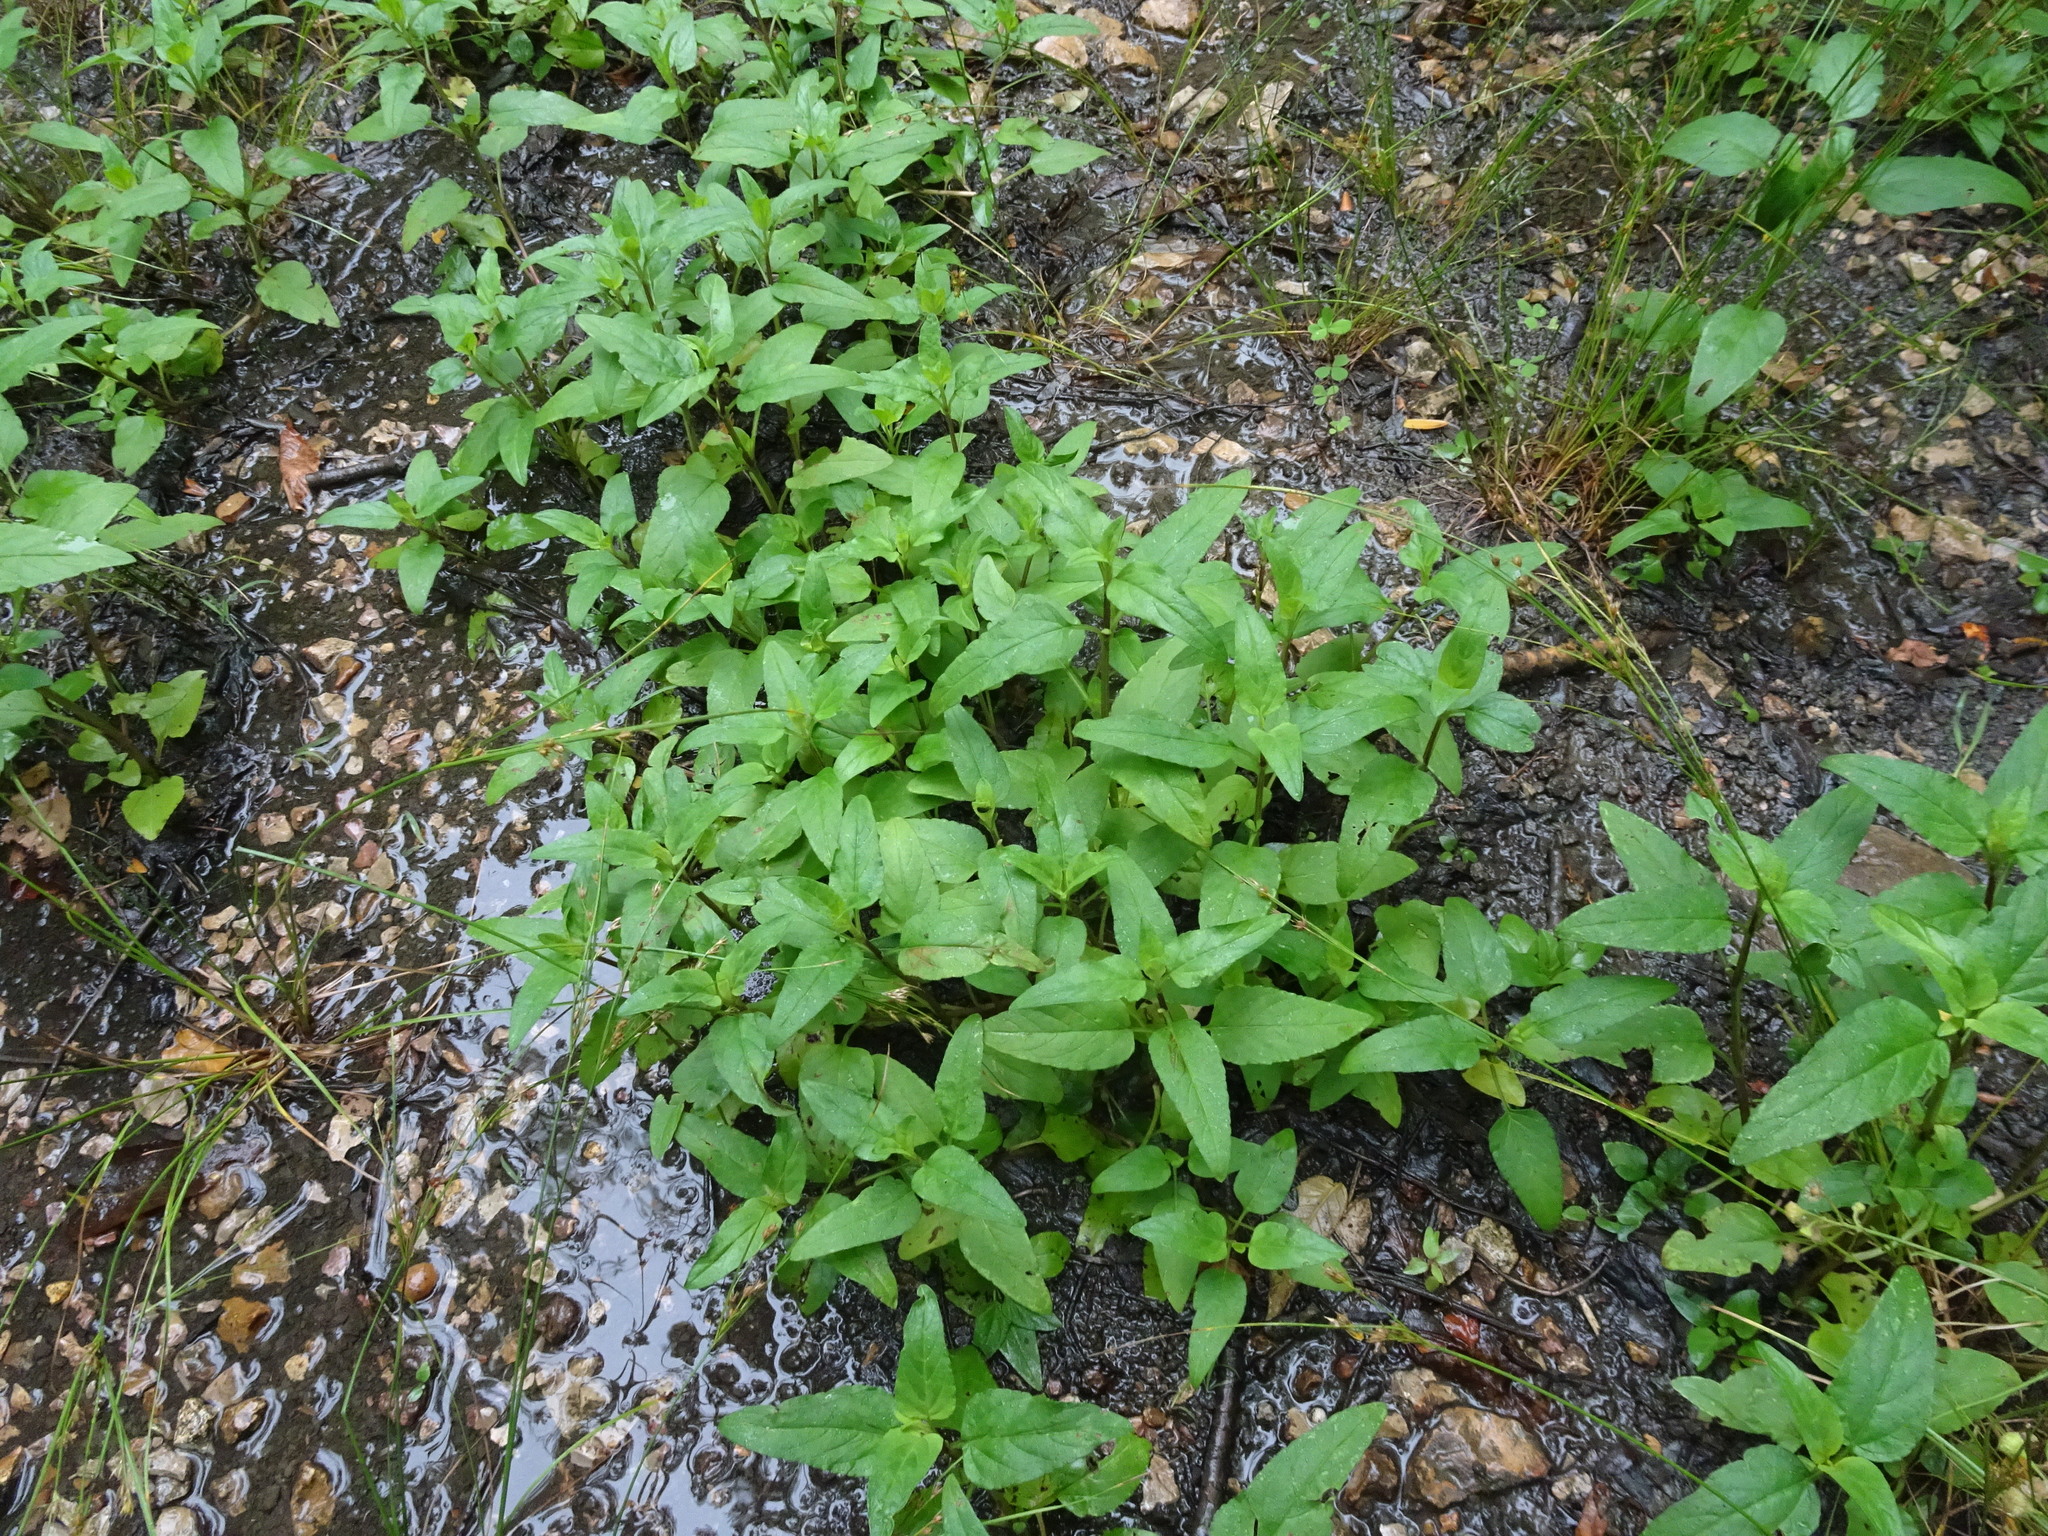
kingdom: Plantae
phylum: Tracheophyta
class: Magnoliopsida
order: Lamiales
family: Lamiaceae
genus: Prunella
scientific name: Prunella vulgaris
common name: Heal-all
